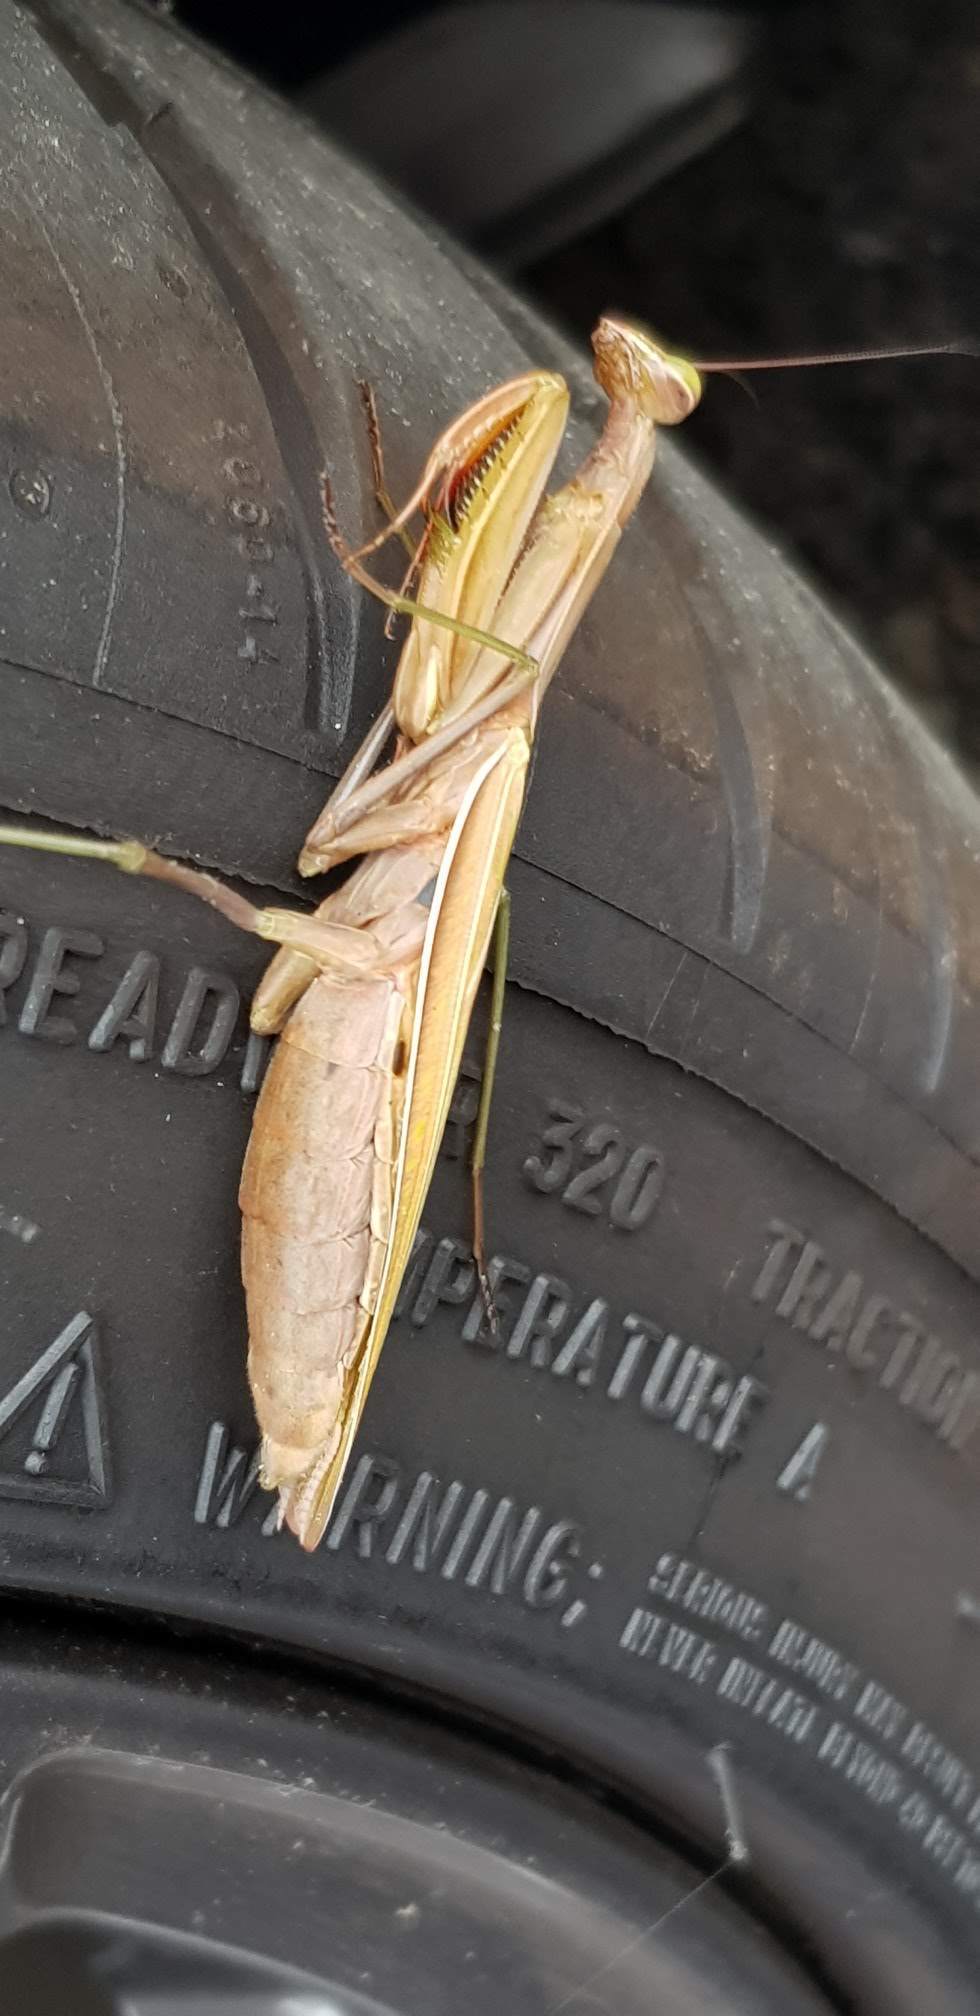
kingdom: Animalia
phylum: Arthropoda
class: Insecta
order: Mantodea
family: Mantidae
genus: Mantis
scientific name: Mantis religiosa
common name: Praying mantis
